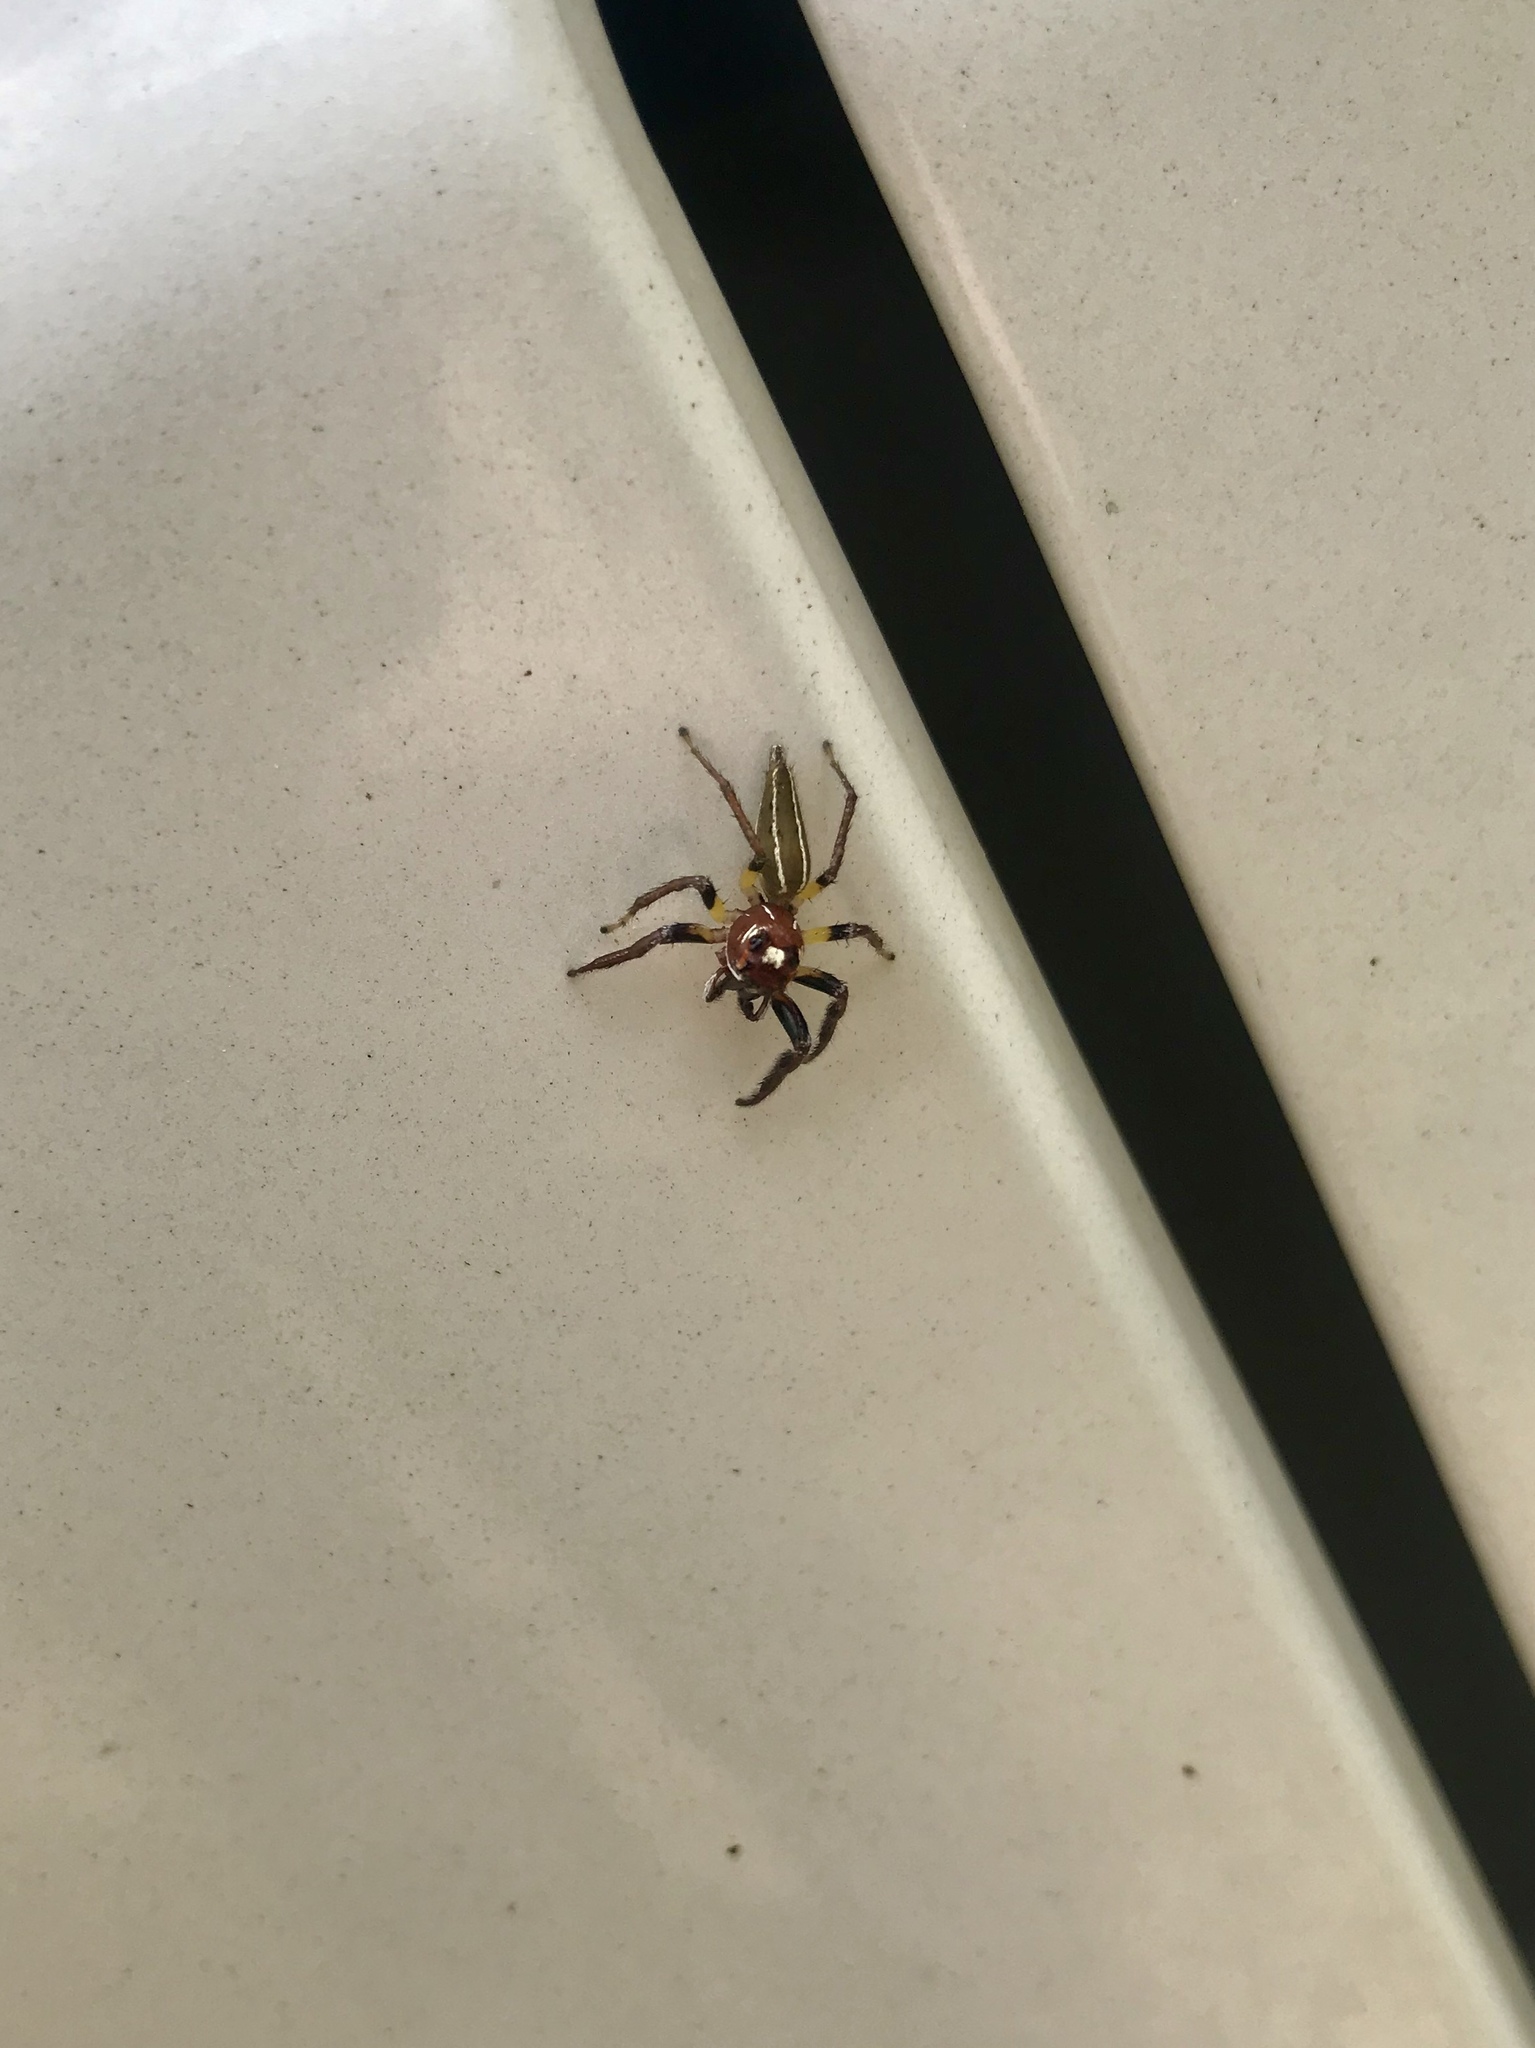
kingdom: Animalia
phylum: Arthropoda
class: Arachnida
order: Araneae
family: Salticidae
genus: Colonus
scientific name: Colonus sylvanus
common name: Jumping spiders
